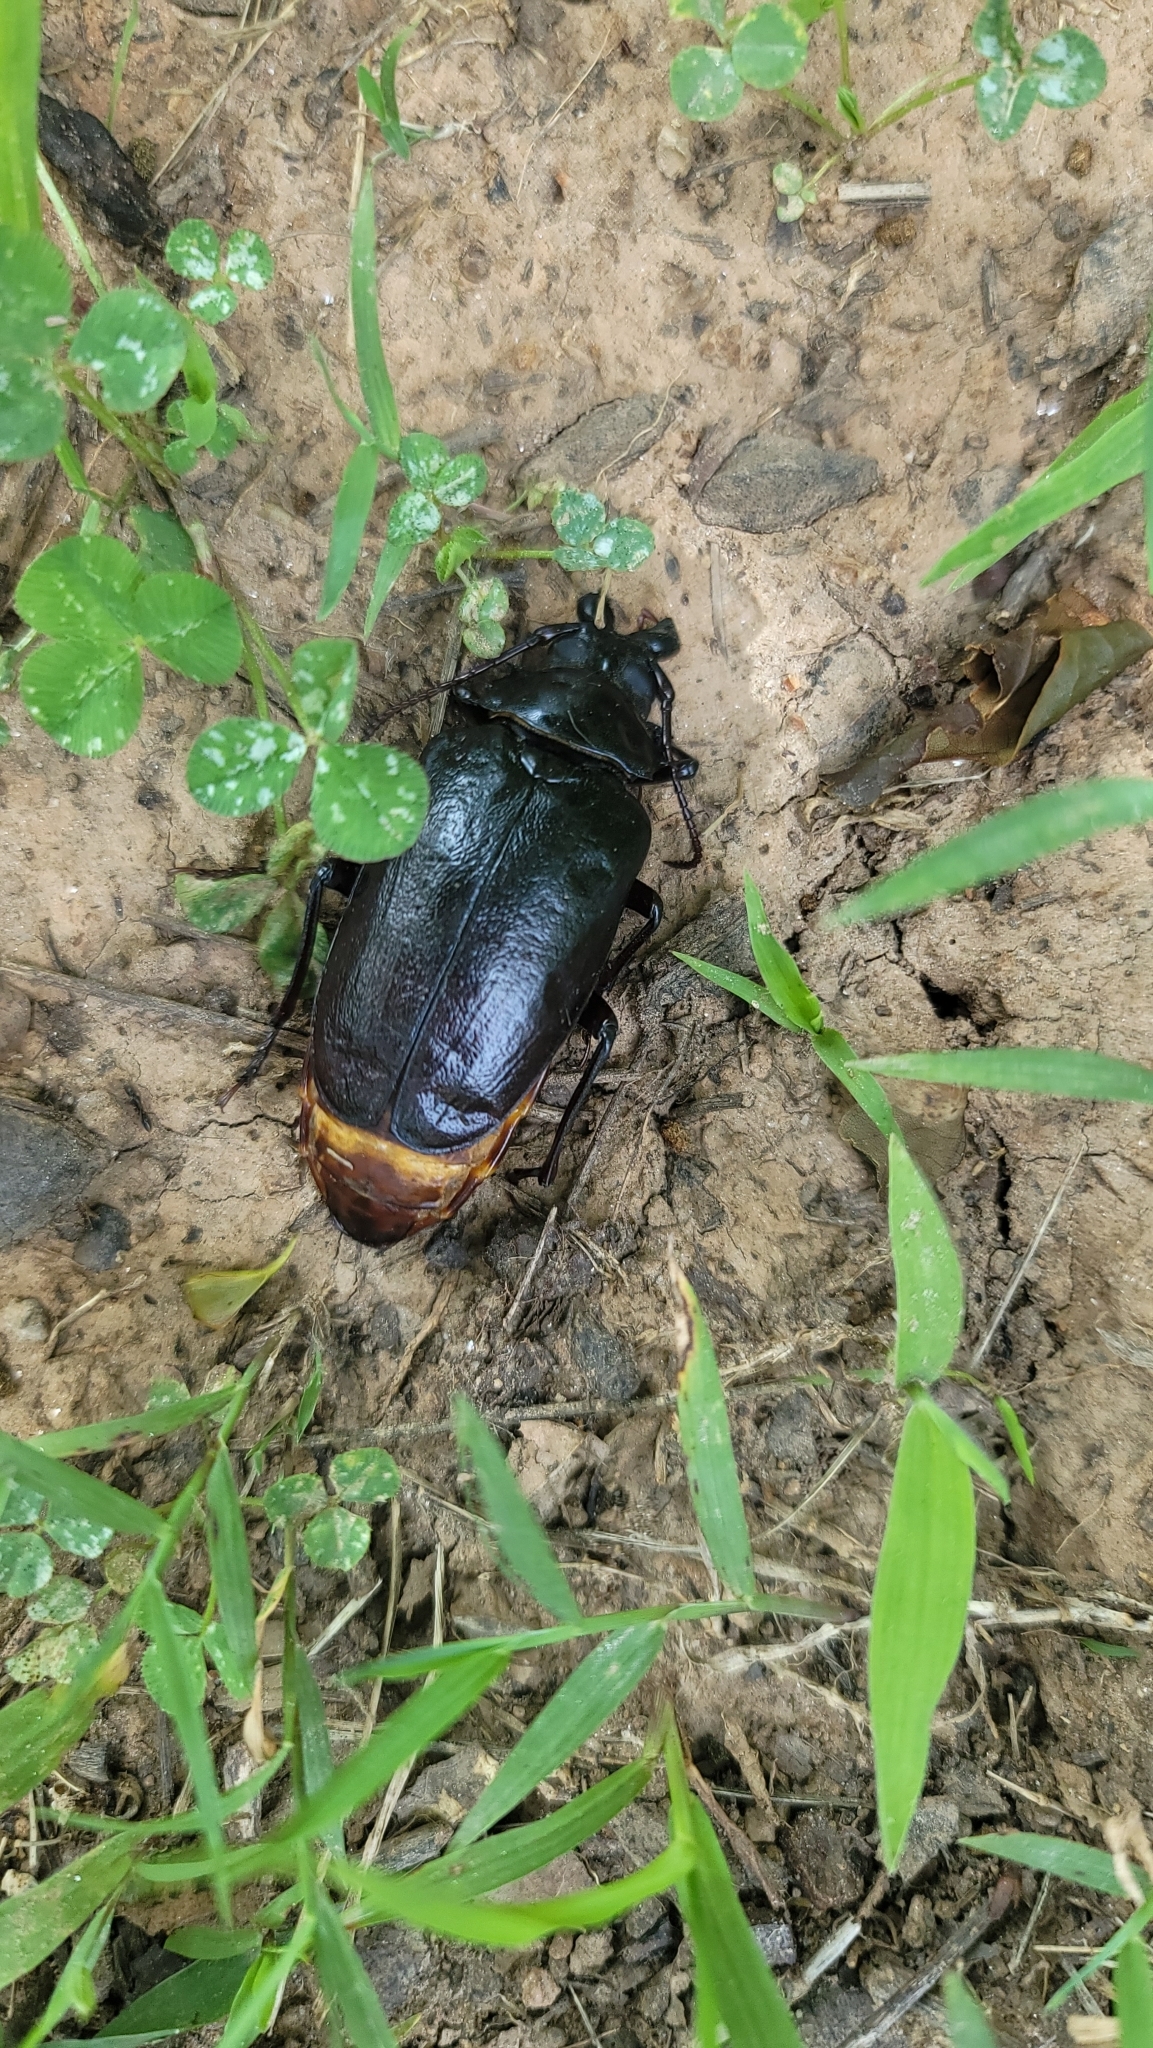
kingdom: Animalia
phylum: Arthropoda
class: Insecta
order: Coleoptera
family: Cerambycidae
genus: Prionus
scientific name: Prionus laticollis
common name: Broad necked prionus
